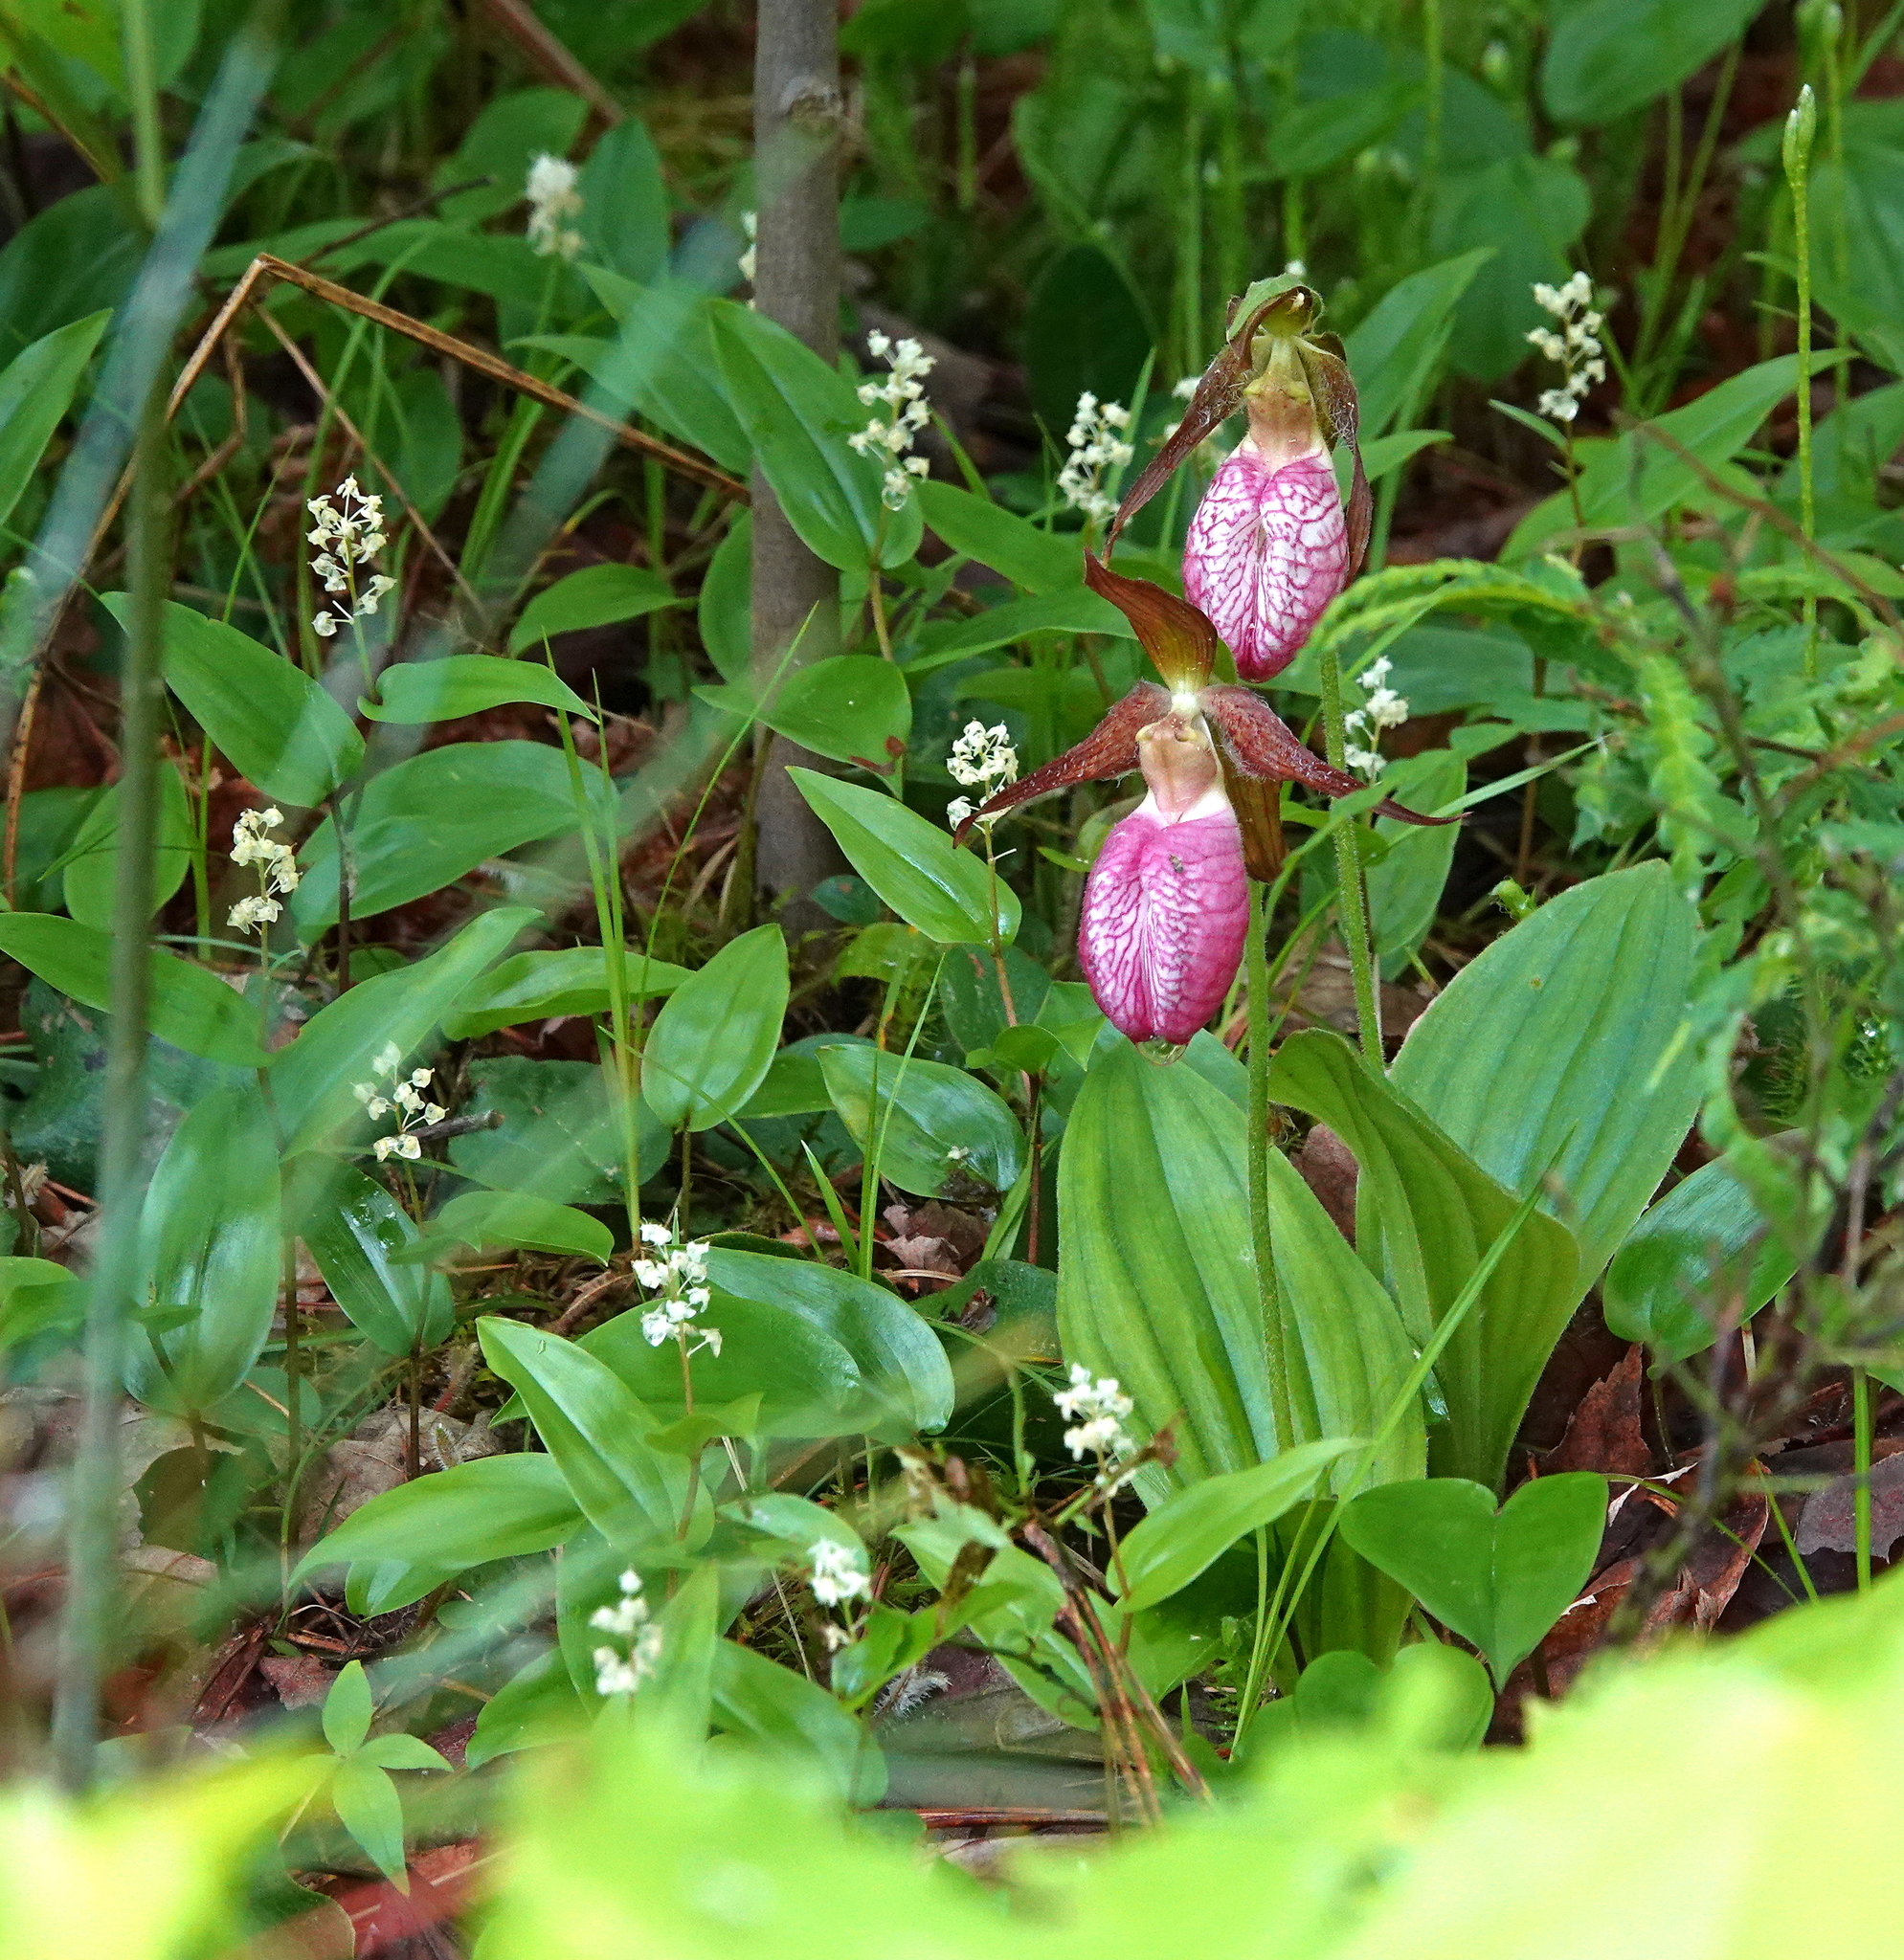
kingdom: Plantae
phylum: Tracheophyta
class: Liliopsida
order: Asparagales
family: Orchidaceae
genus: Cypripedium
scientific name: Cypripedium acaule
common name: Pink lady's-slipper
